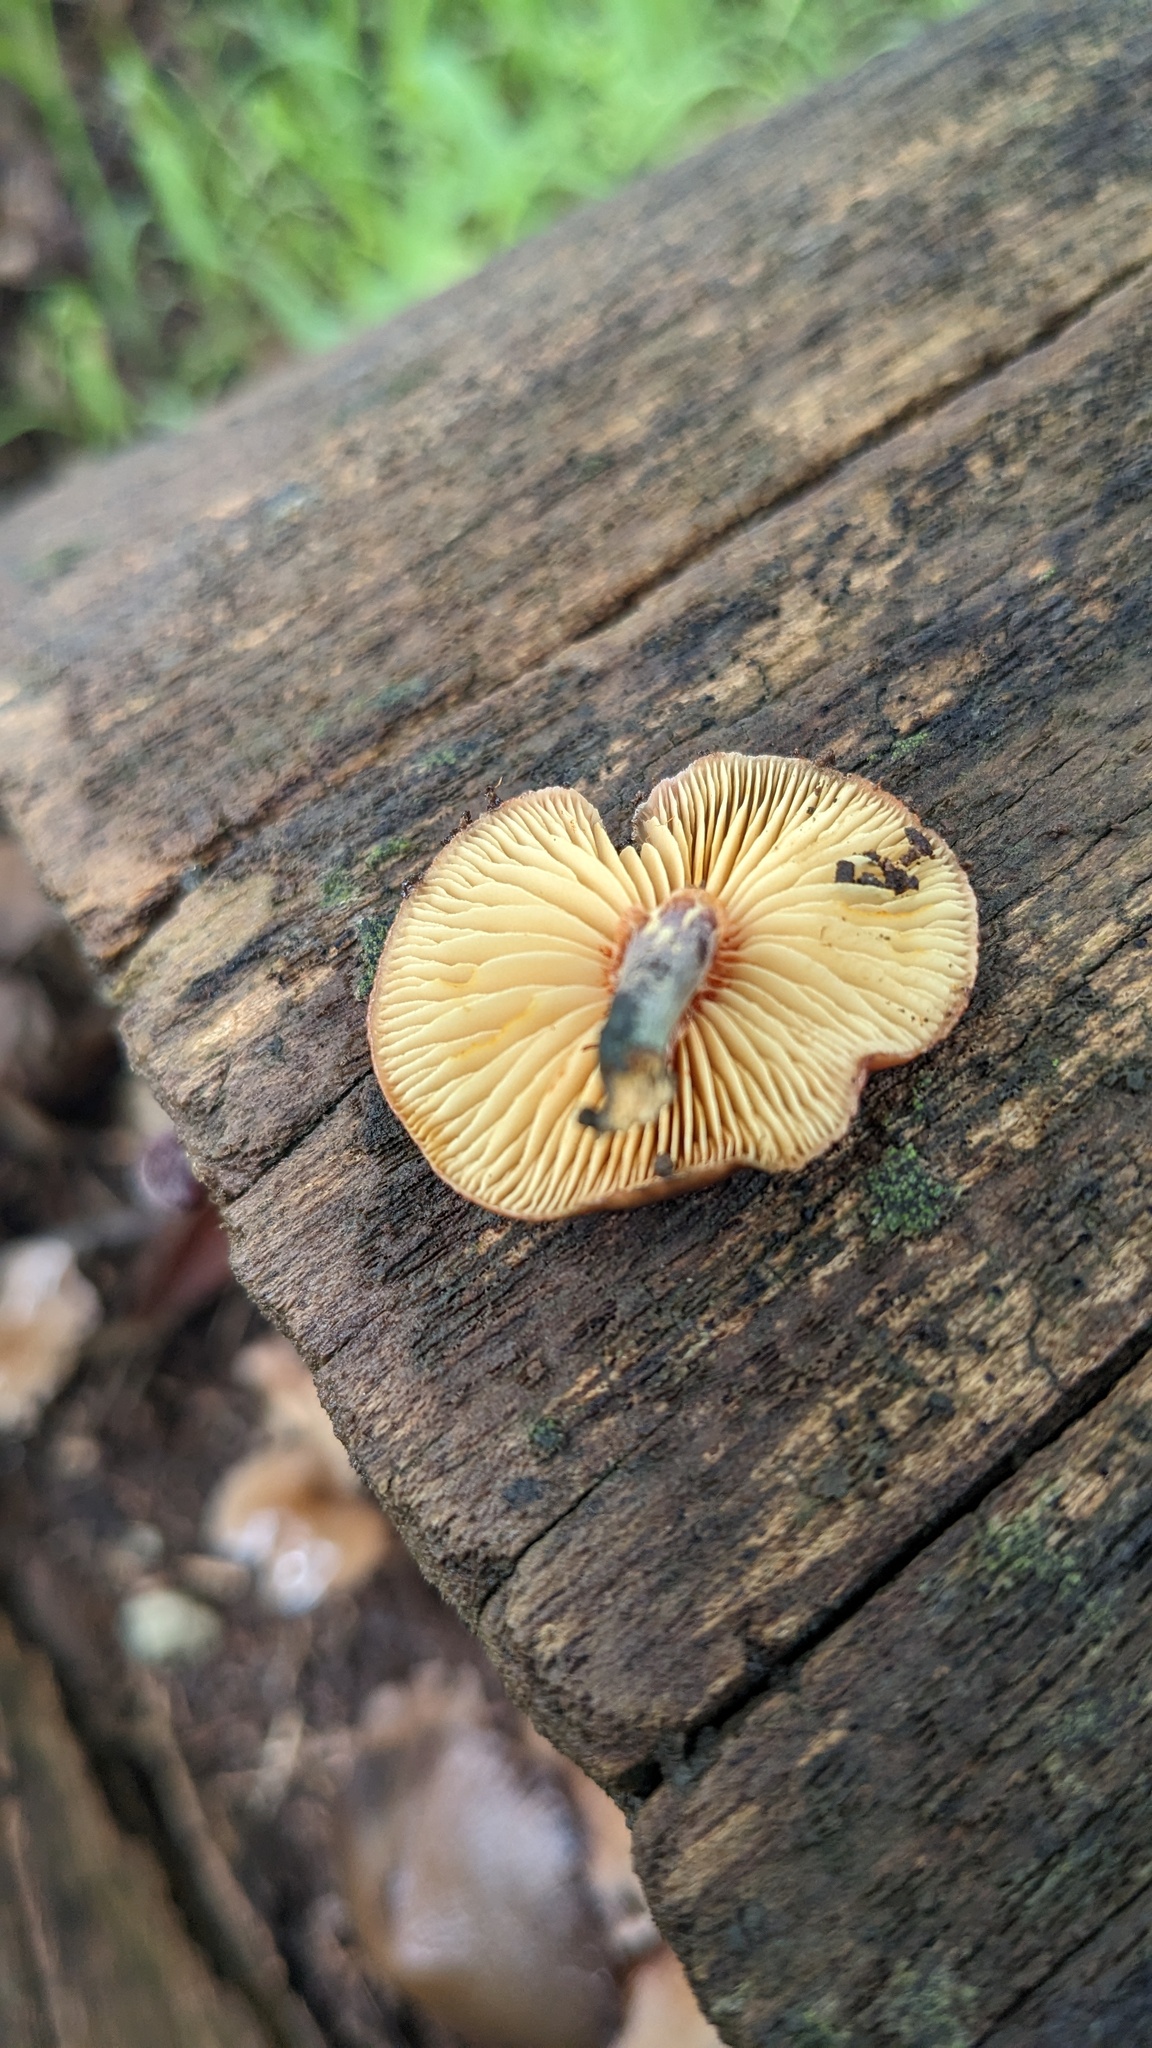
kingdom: Fungi
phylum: Basidiomycota
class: Agaricomycetes
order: Agaricales
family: Hymenogastraceae
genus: Gymnopilus
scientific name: Gymnopilus luteofolius
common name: Yellow-gilled gymnopilus
